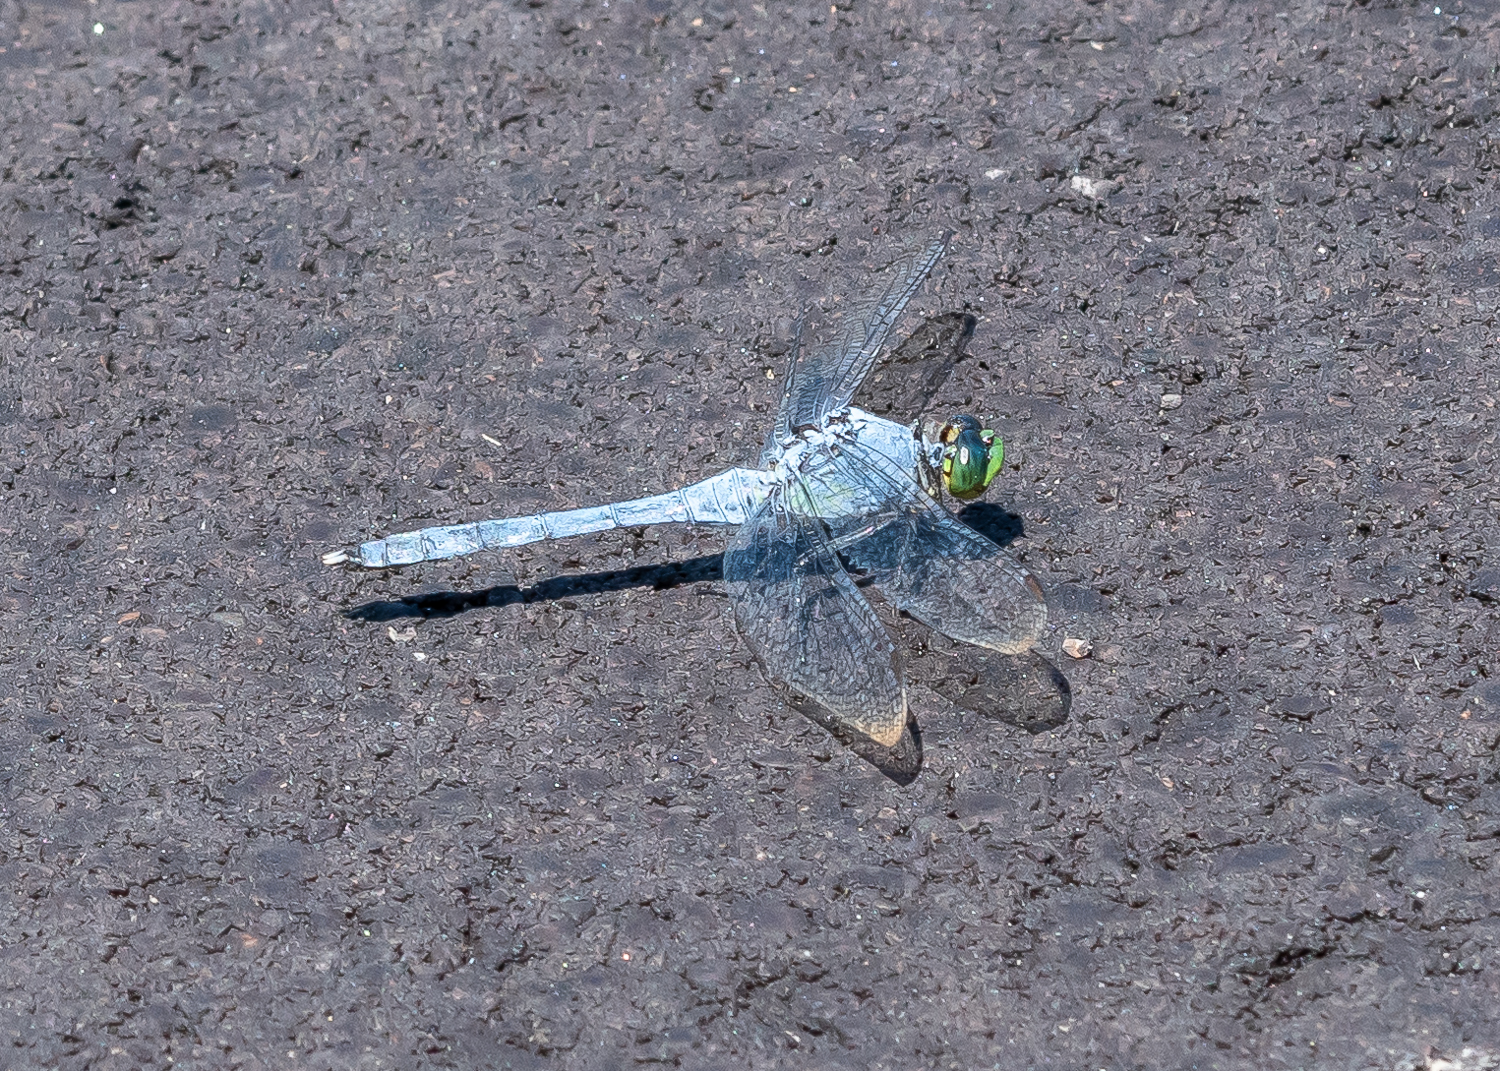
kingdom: Animalia
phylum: Arthropoda
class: Insecta
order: Odonata
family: Libellulidae
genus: Erythemis
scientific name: Erythemis simplicicollis
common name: Eastern pondhawk
